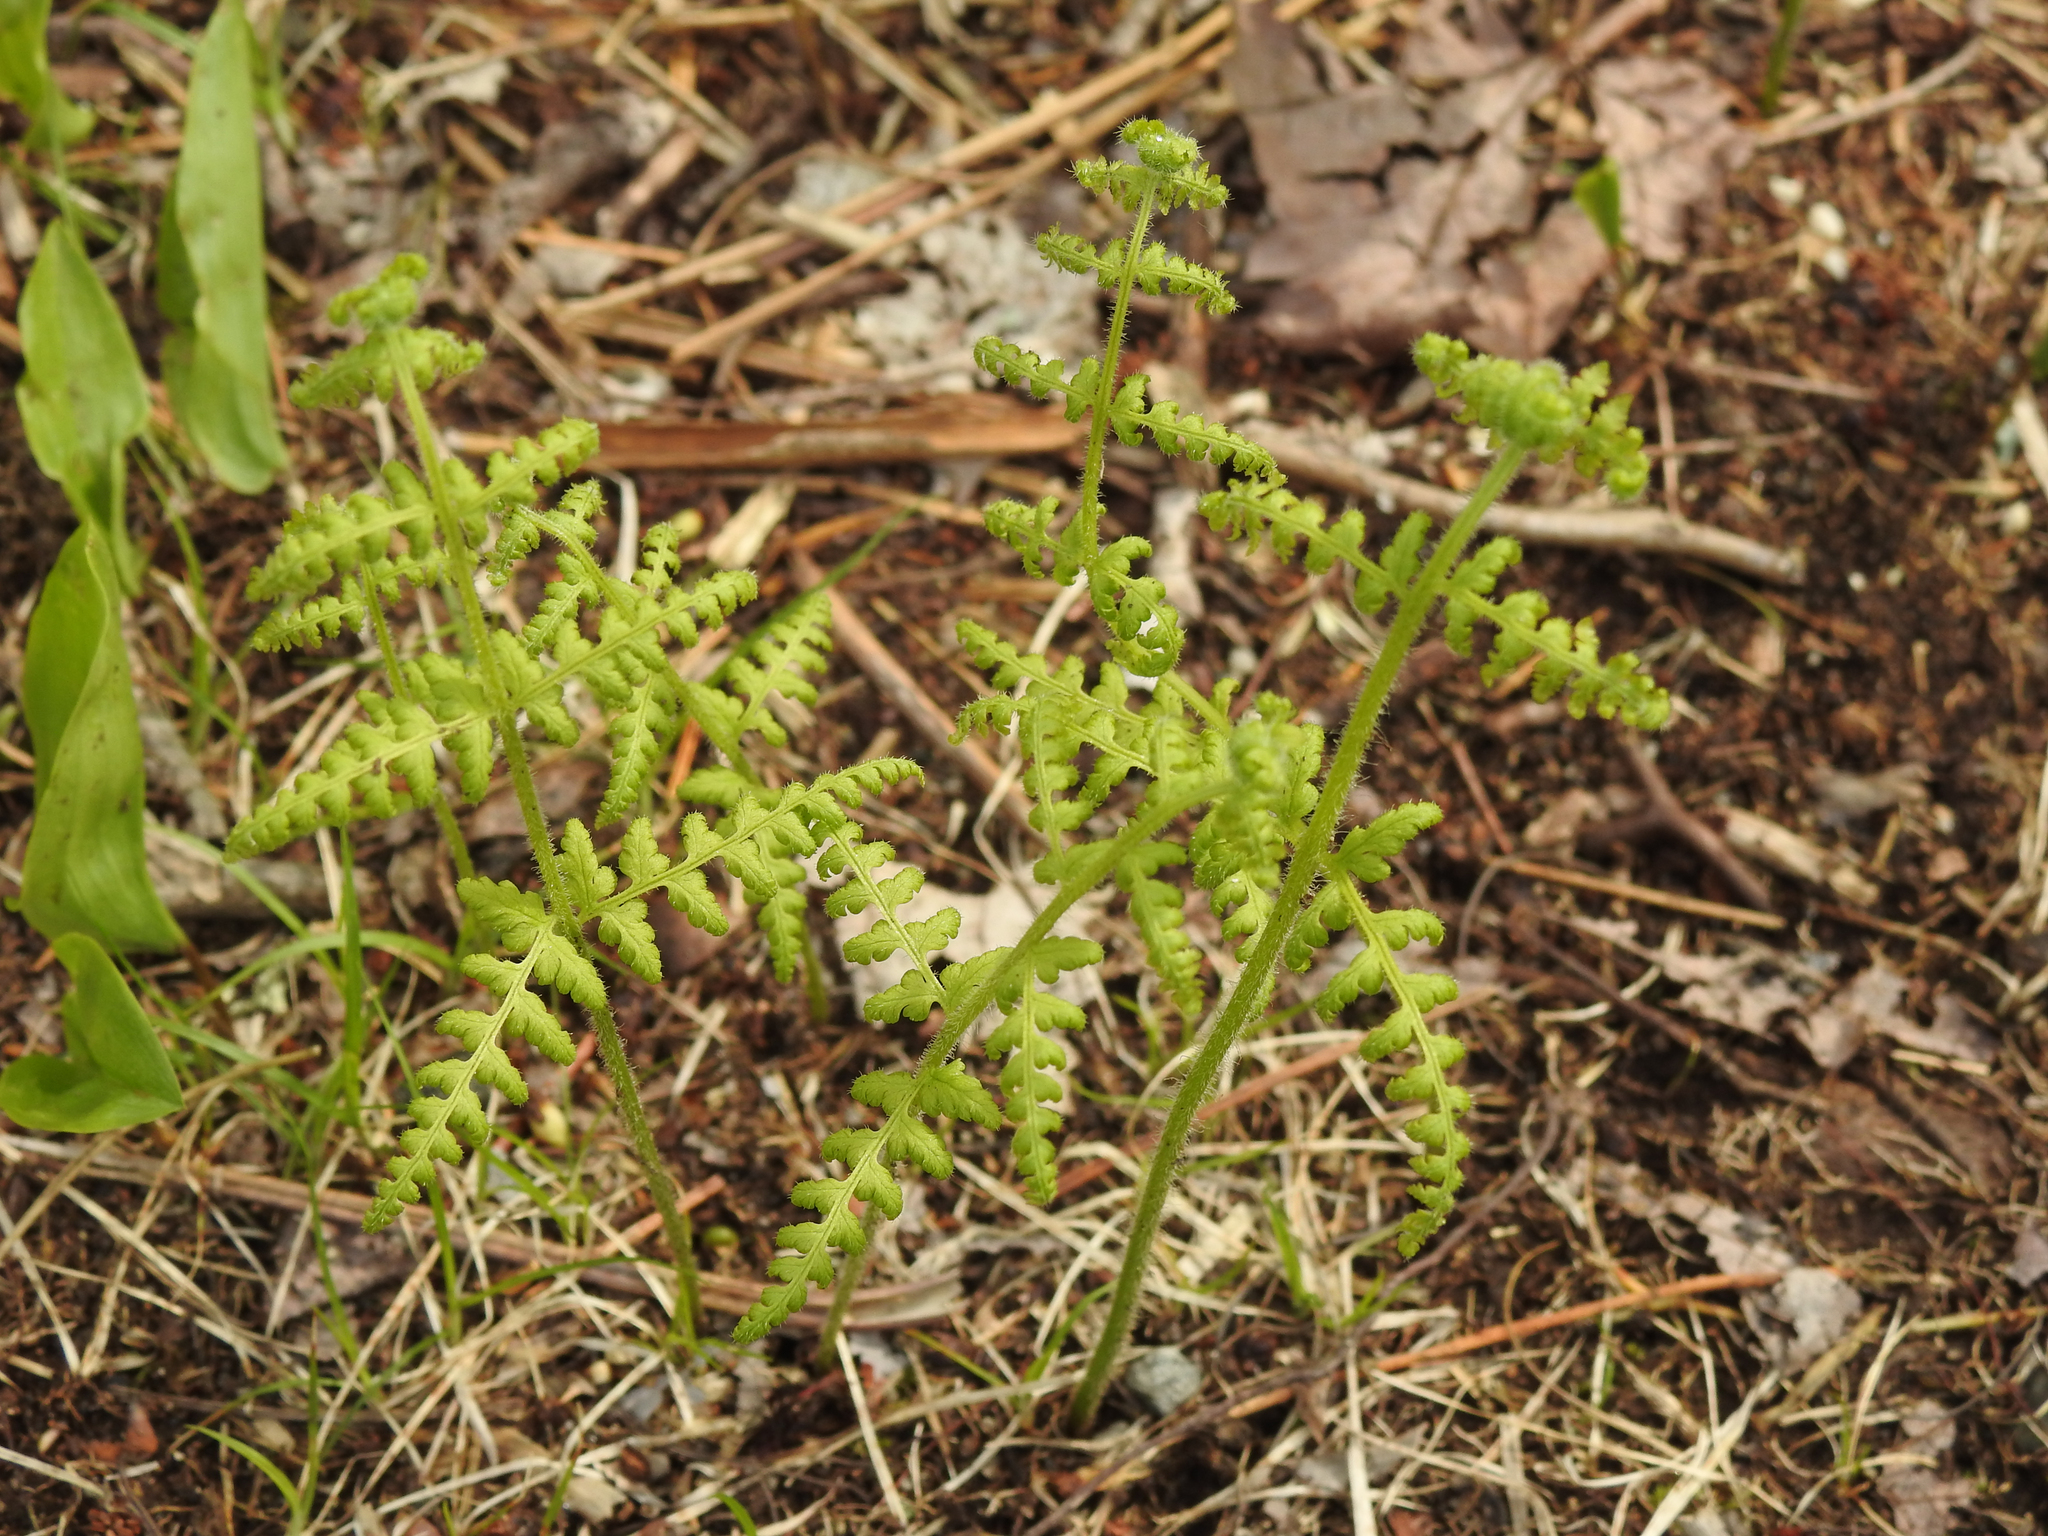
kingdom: Plantae
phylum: Tracheophyta
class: Polypodiopsida
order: Polypodiales
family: Dennstaedtiaceae
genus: Sitobolium
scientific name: Sitobolium punctilobum
